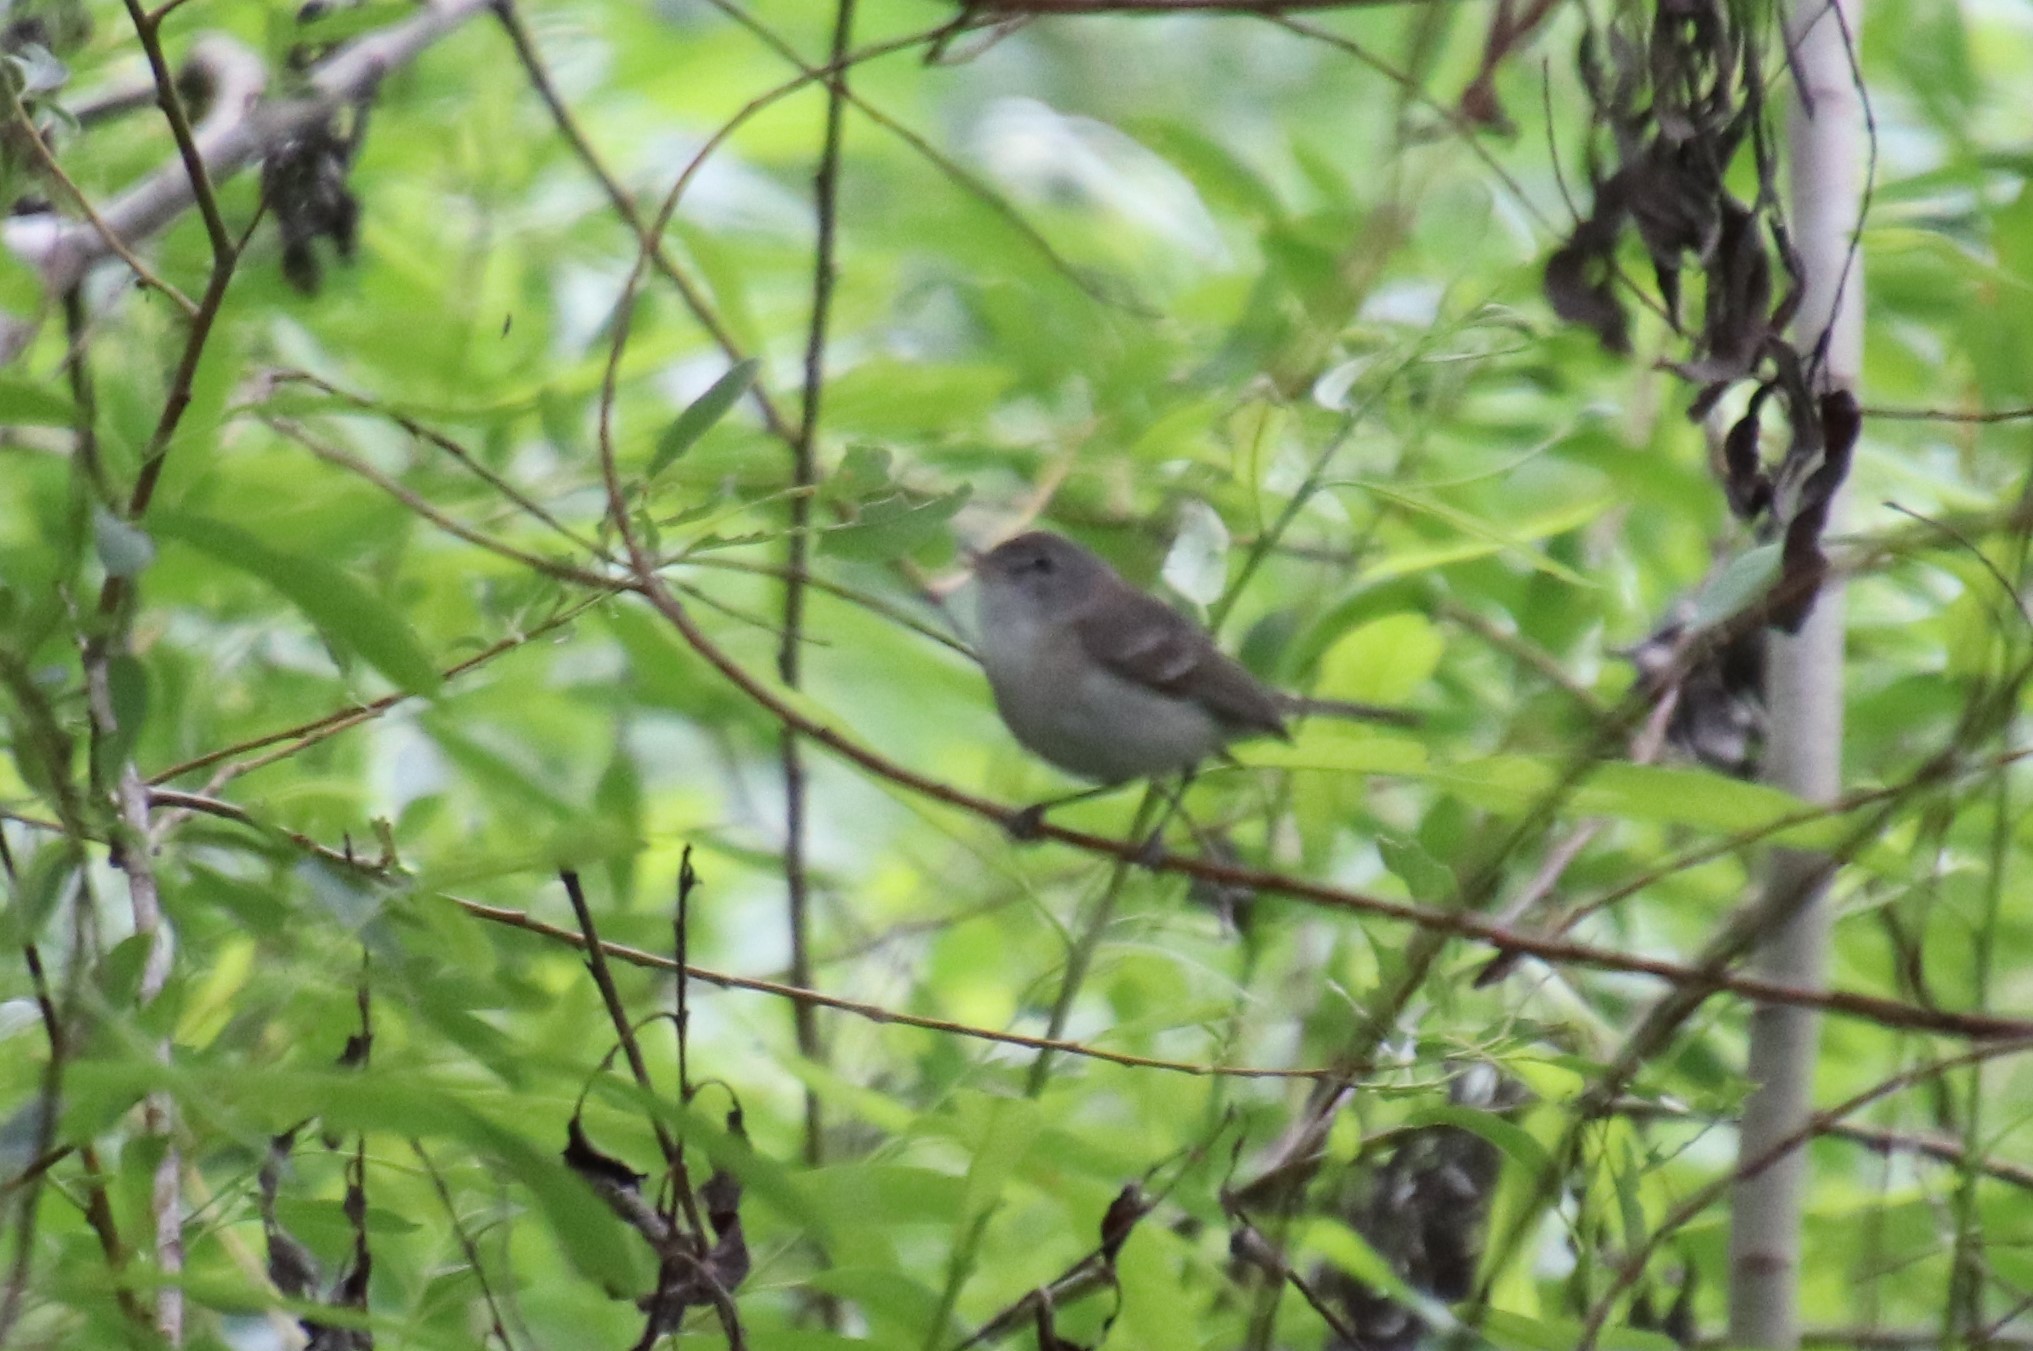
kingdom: Animalia
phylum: Chordata
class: Aves
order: Passeriformes
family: Vireonidae
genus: Vireo
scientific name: Vireo bellii
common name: Bell's vireo
